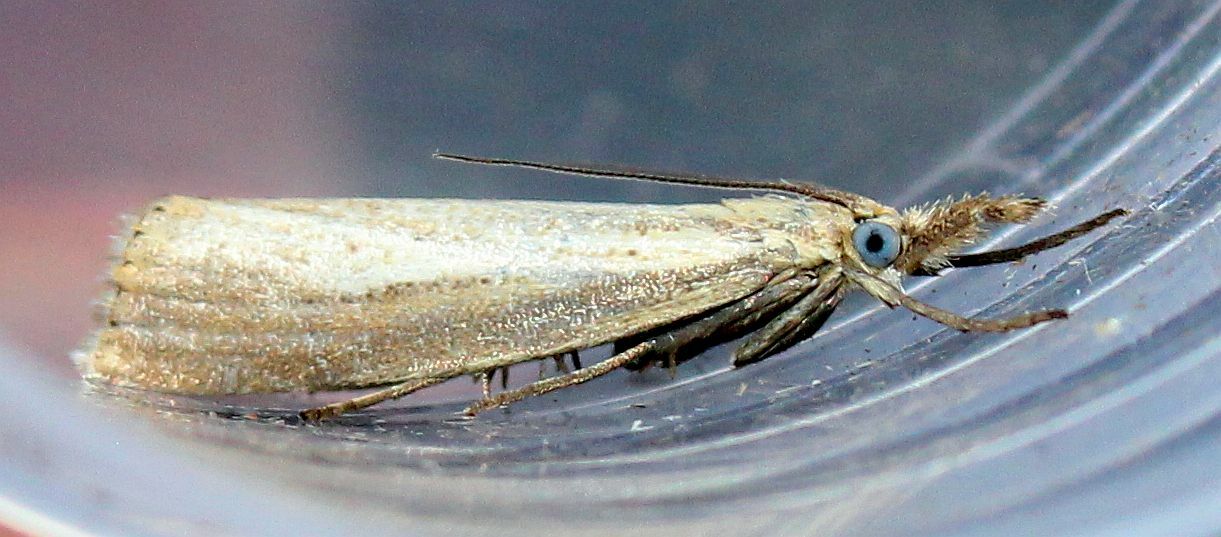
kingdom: Animalia
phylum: Arthropoda
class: Insecta
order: Lepidoptera
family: Crambidae
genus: Agriphila
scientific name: Agriphila straminella
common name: Straw grass-veneer
